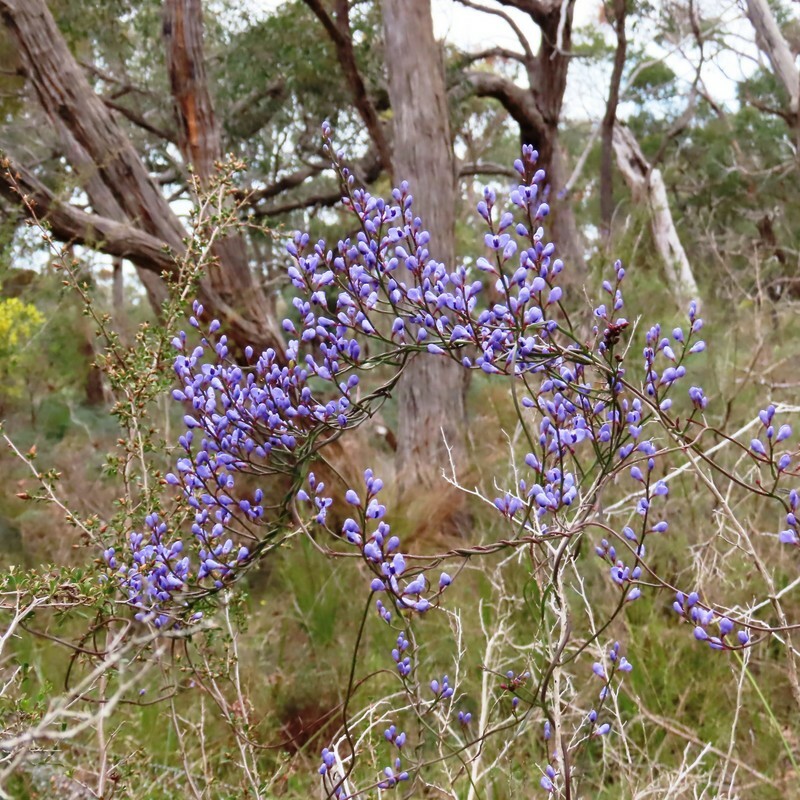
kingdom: Plantae
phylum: Tracheophyta
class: Magnoliopsida
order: Fabales
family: Polygalaceae
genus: Comesperma
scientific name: Comesperma volubile
